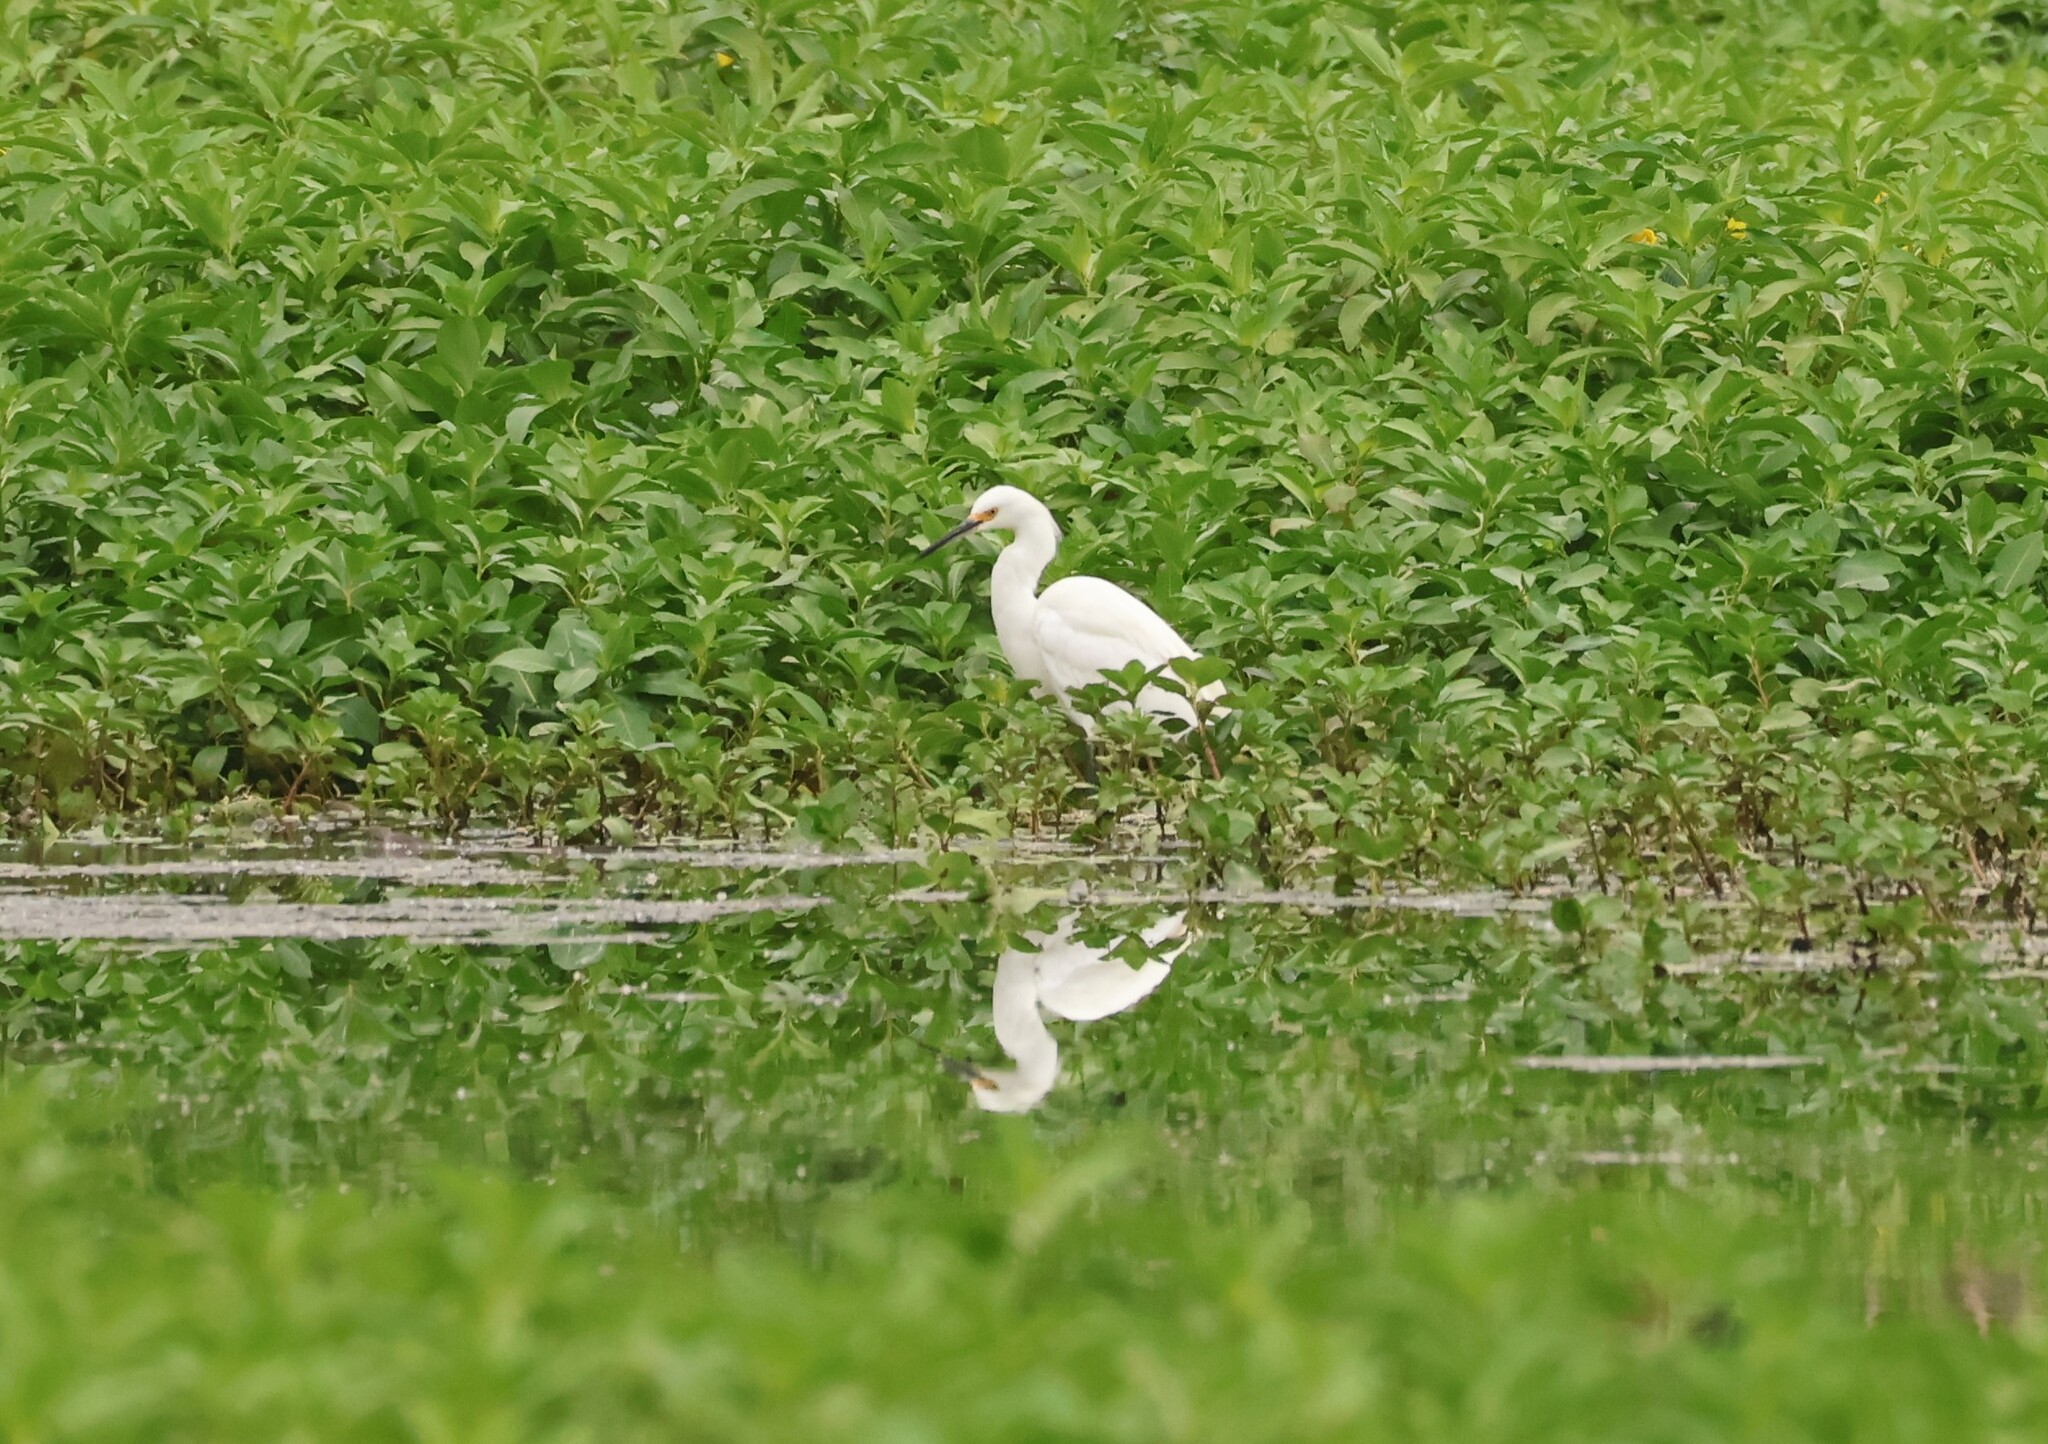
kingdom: Animalia
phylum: Chordata
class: Aves
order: Pelecaniformes
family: Ardeidae
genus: Egretta
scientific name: Egretta thula
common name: Snowy egret
